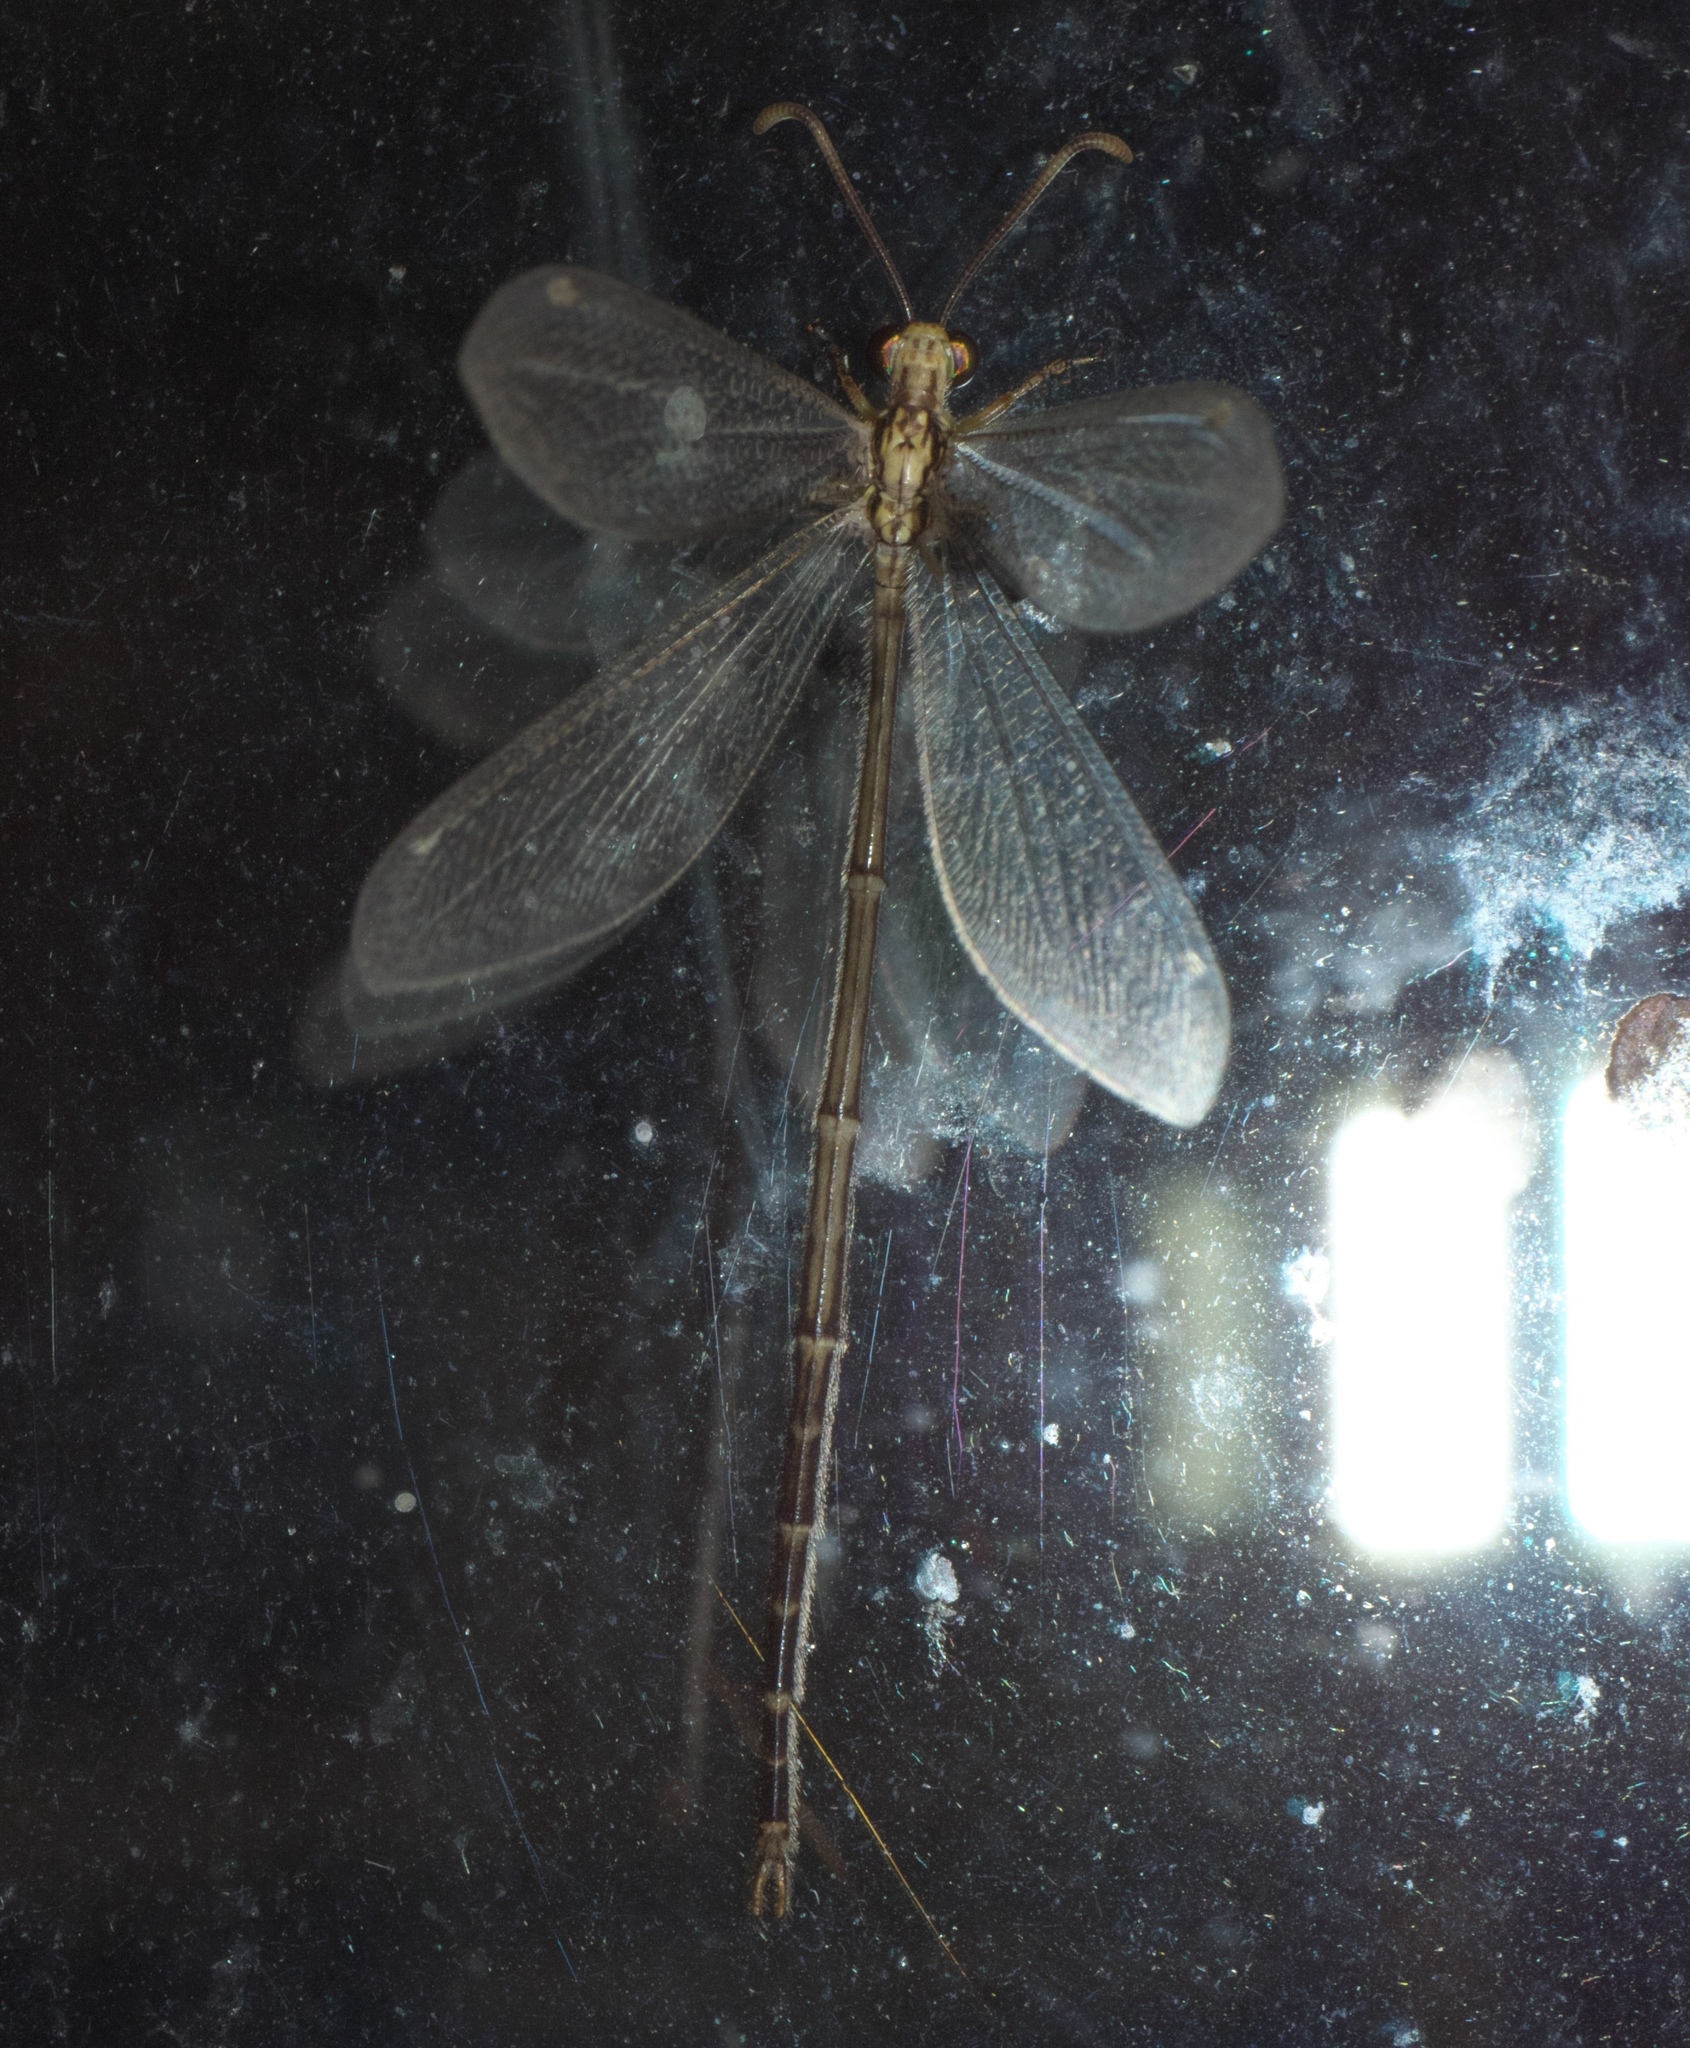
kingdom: Animalia
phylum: Arthropoda
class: Insecta
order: Neuroptera
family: Myrmeleontidae
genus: Brachynemurus
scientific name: Brachynemurus abdominalis
